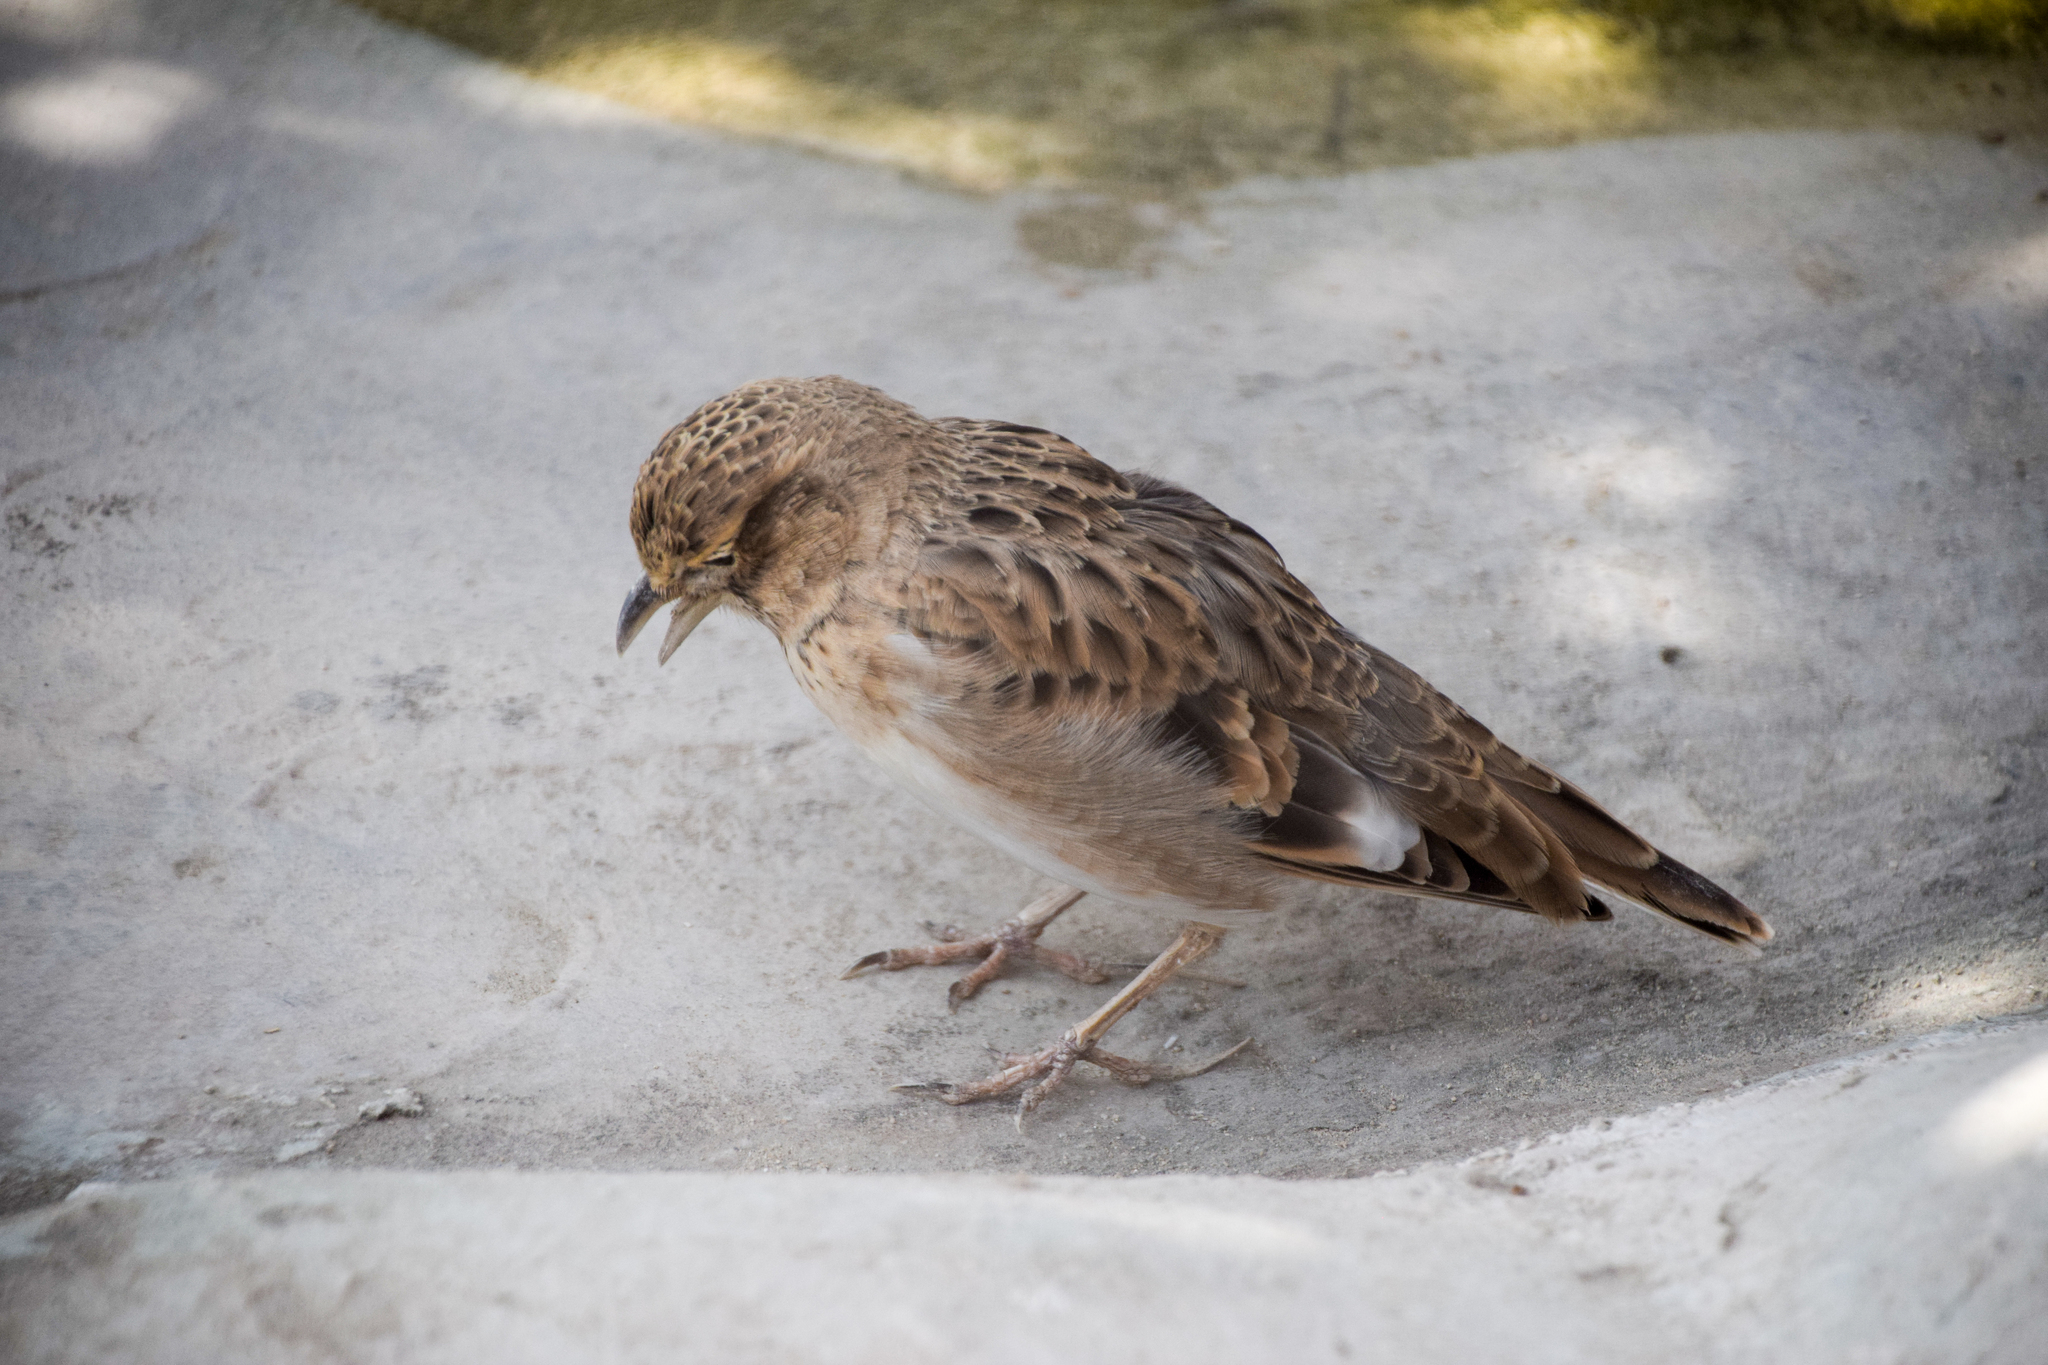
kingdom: Animalia
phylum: Chordata
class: Aves
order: Passeriformes
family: Alaudidae
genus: Calandrella
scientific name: Calandrella brachydactyla
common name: Greater short-toed lark
